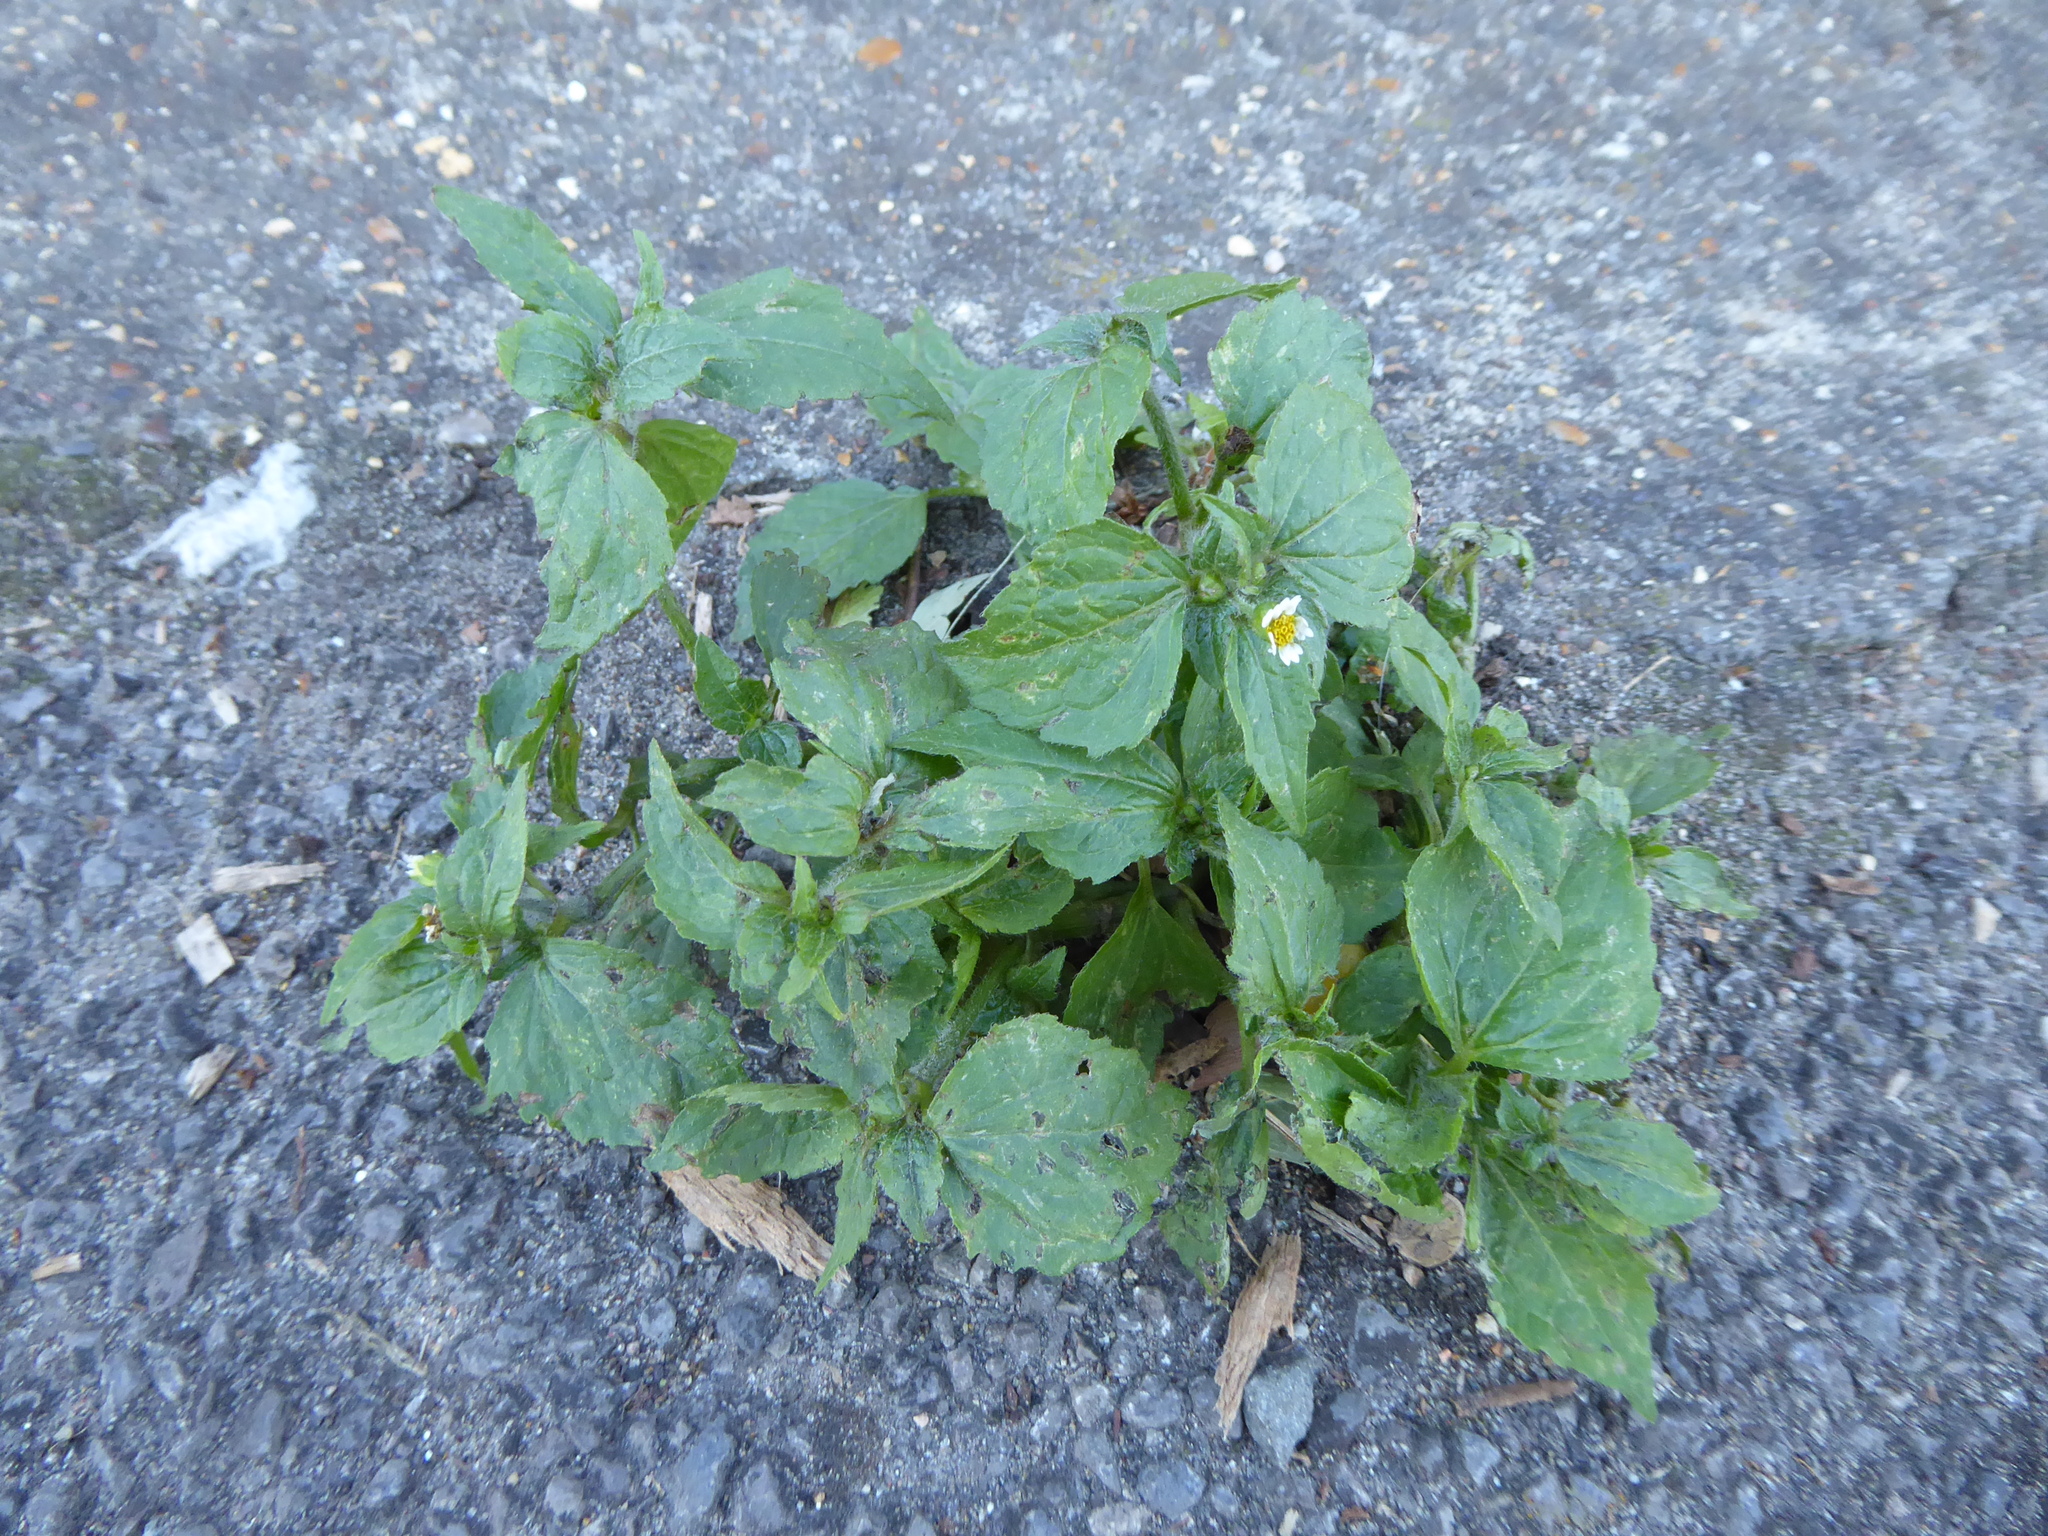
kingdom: Plantae
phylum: Tracheophyta
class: Magnoliopsida
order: Asterales
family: Asteraceae
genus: Galinsoga
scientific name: Galinsoga quadriradiata
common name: Shaggy soldier
